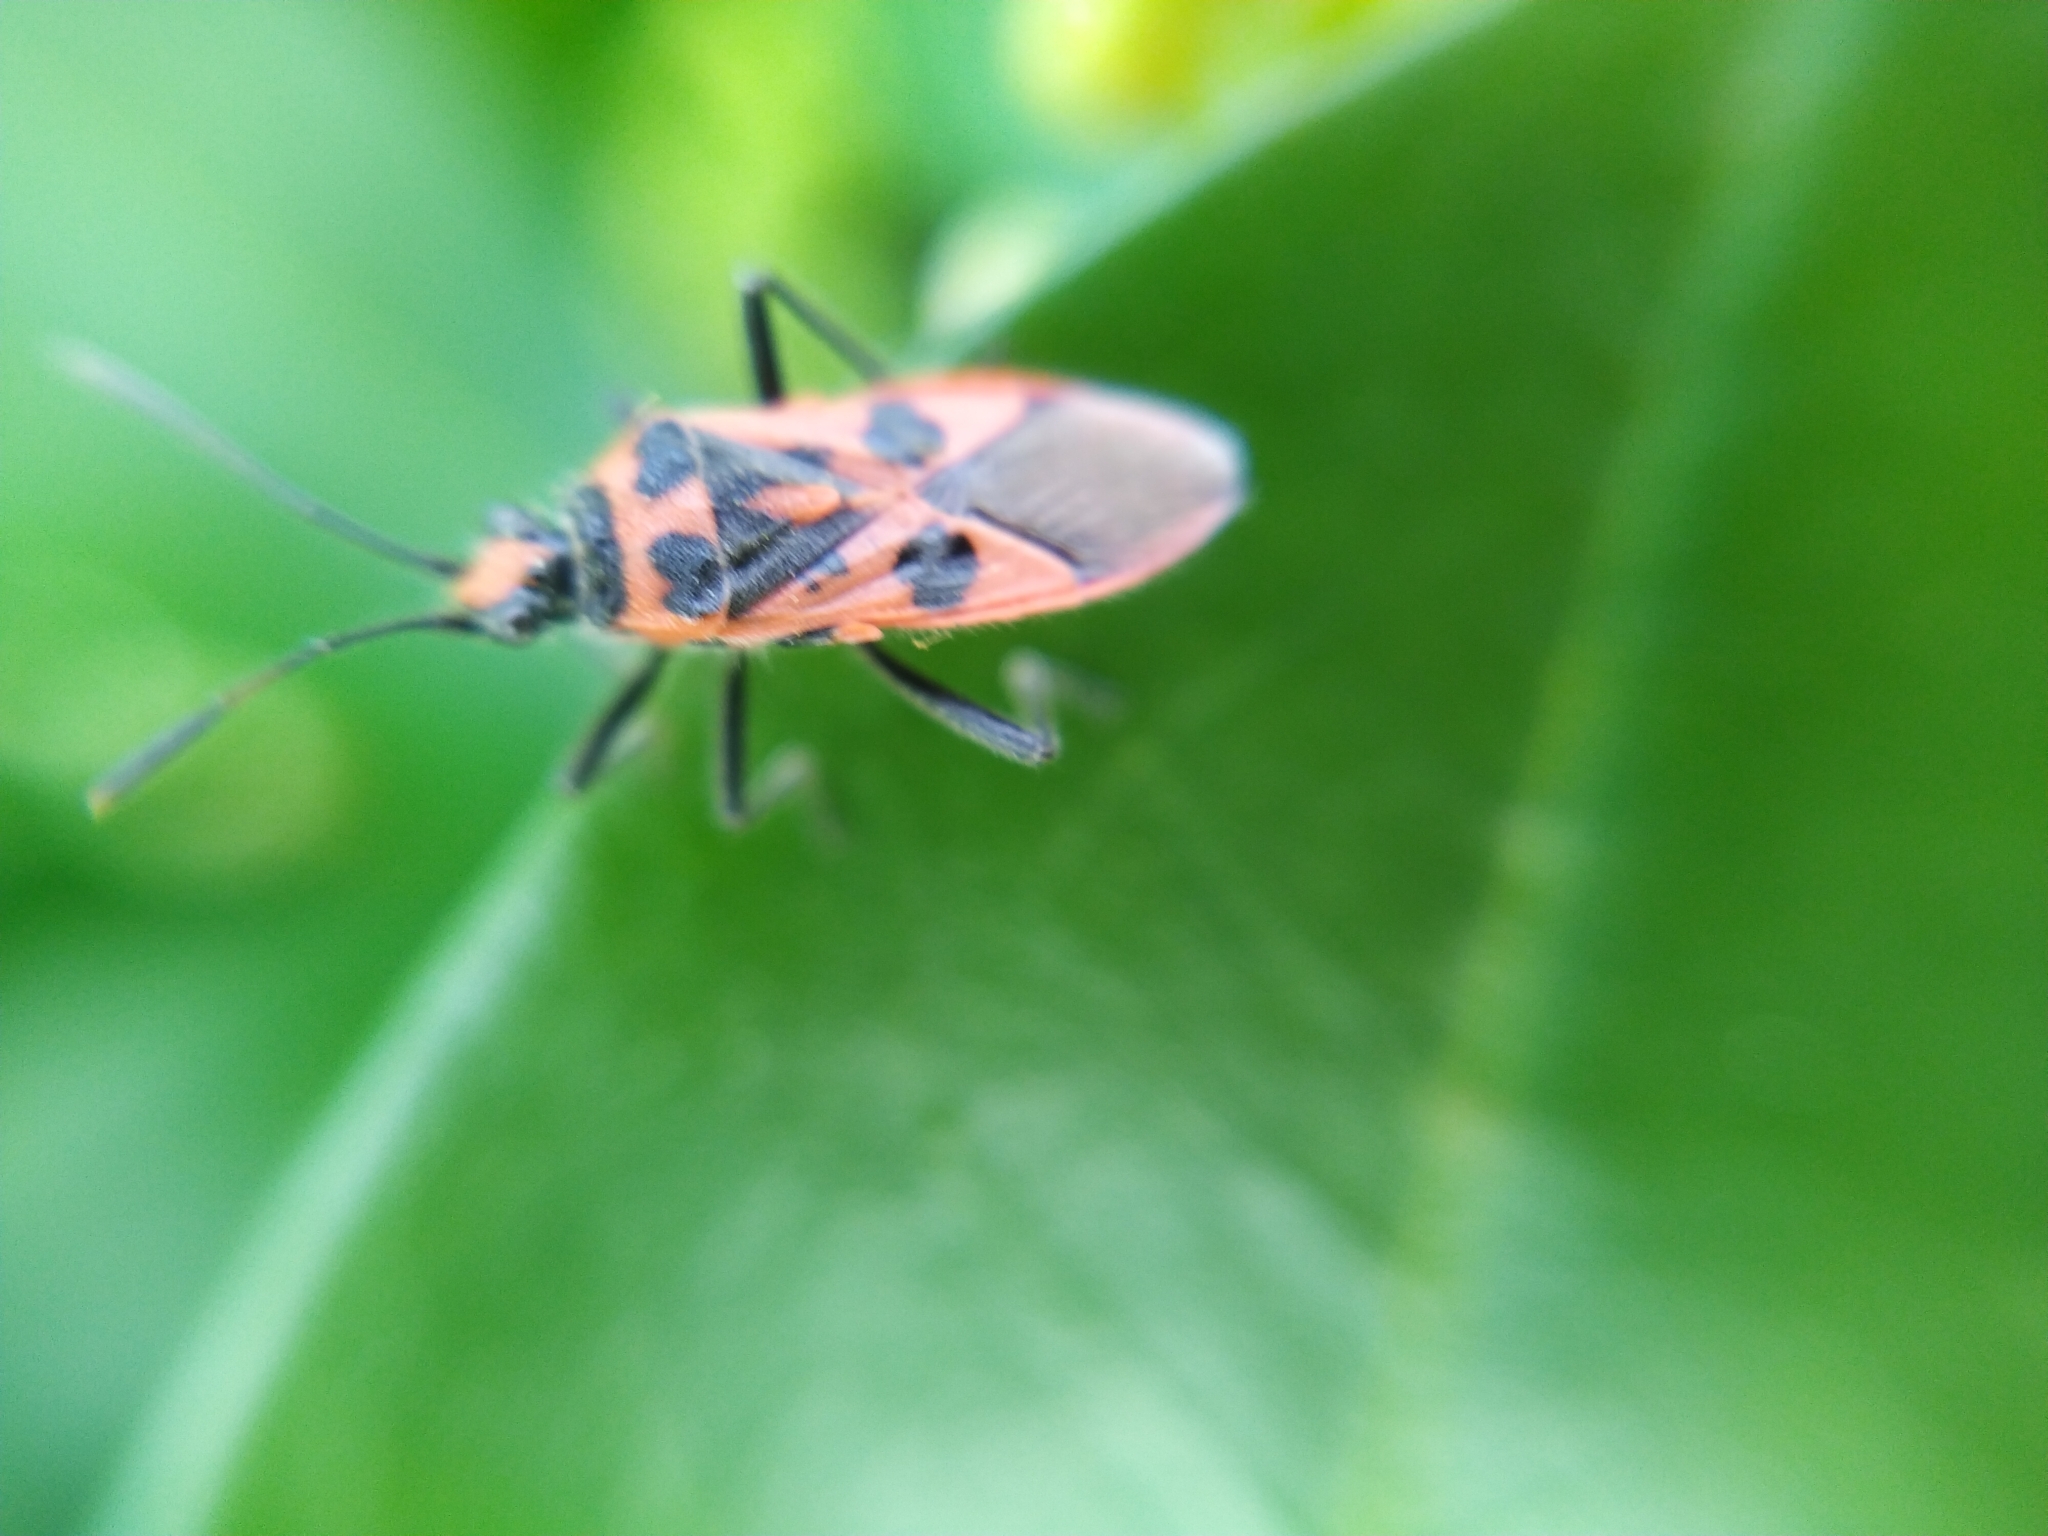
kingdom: Animalia
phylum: Arthropoda
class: Insecta
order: Hemiptera
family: Rhopalidae
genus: Corizus
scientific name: Corizus hyoscyami
